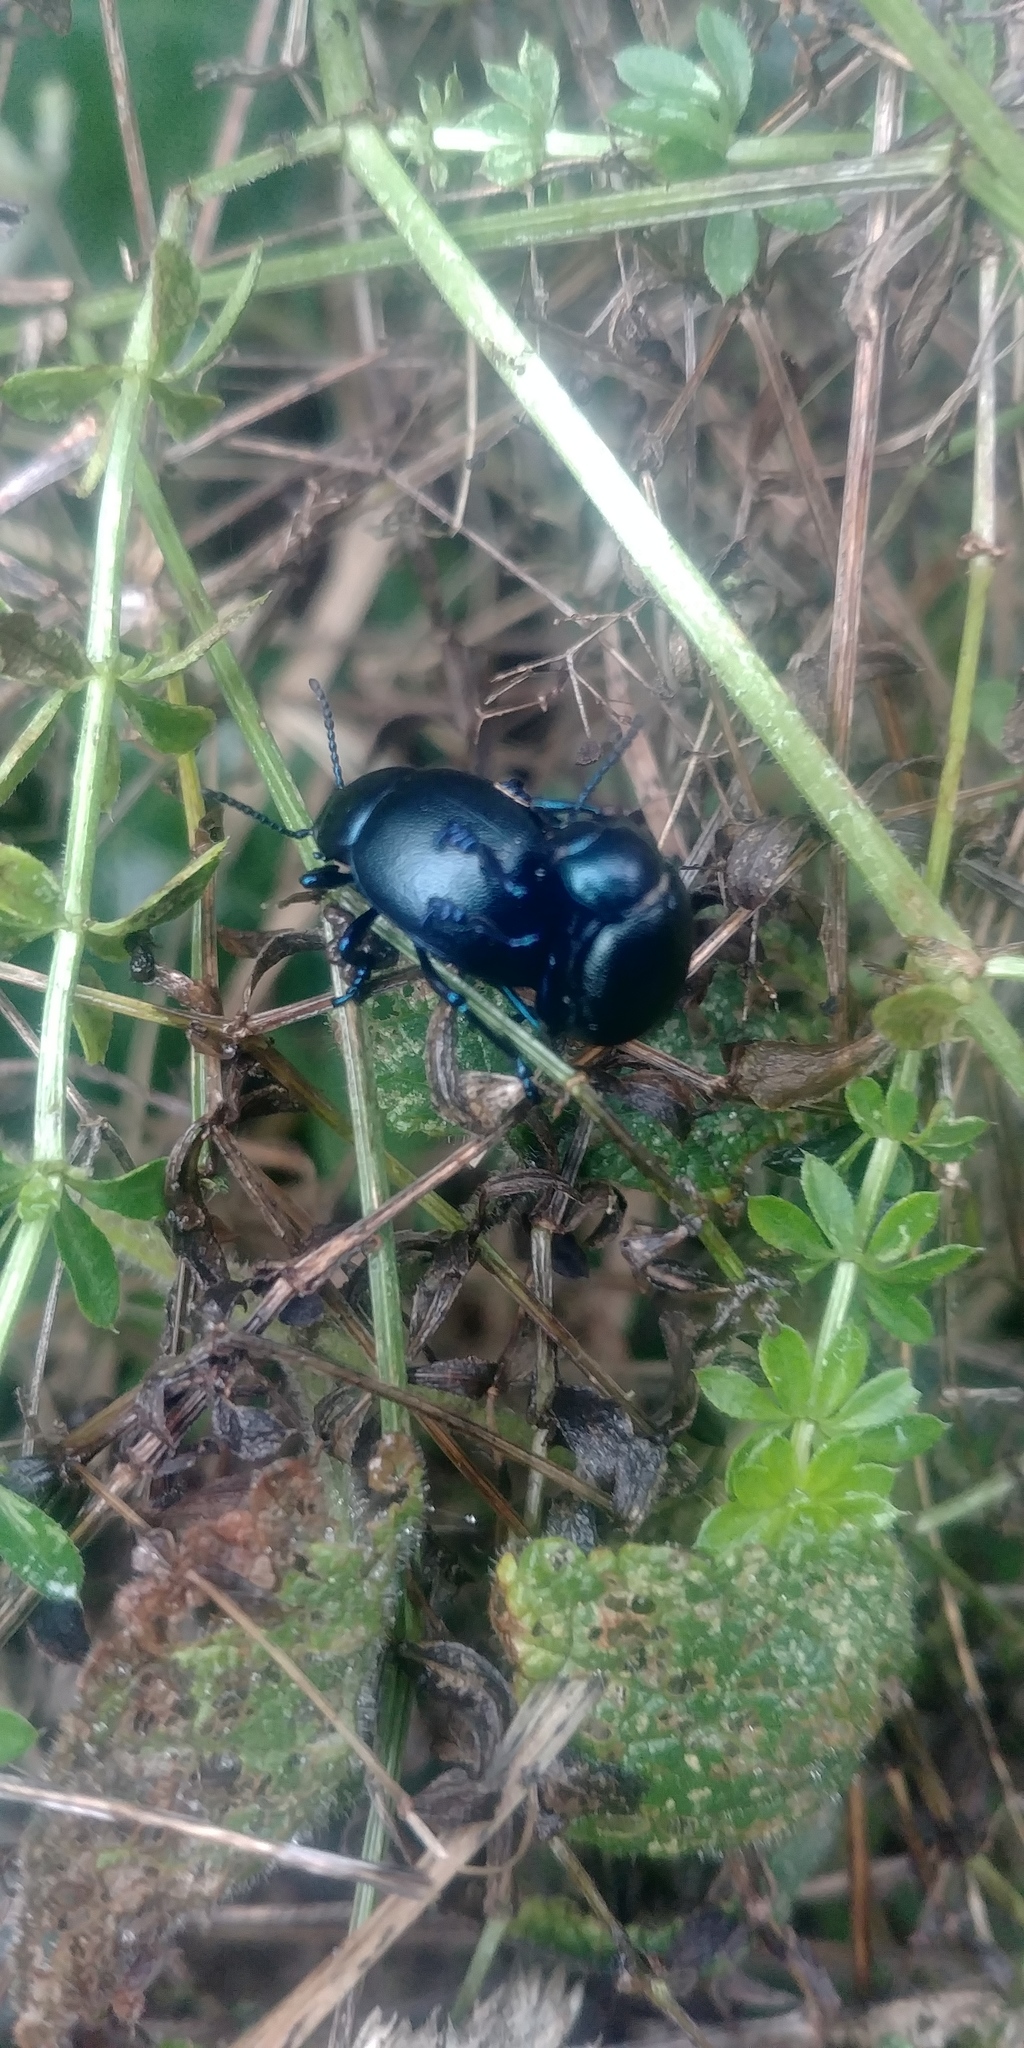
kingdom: Animalia
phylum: Arthropoda
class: Insecta
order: Coleoptera
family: Chrysomelidae
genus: Timarcha
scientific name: Timarcha goettingensis
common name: Small bloody-nosed beetle
